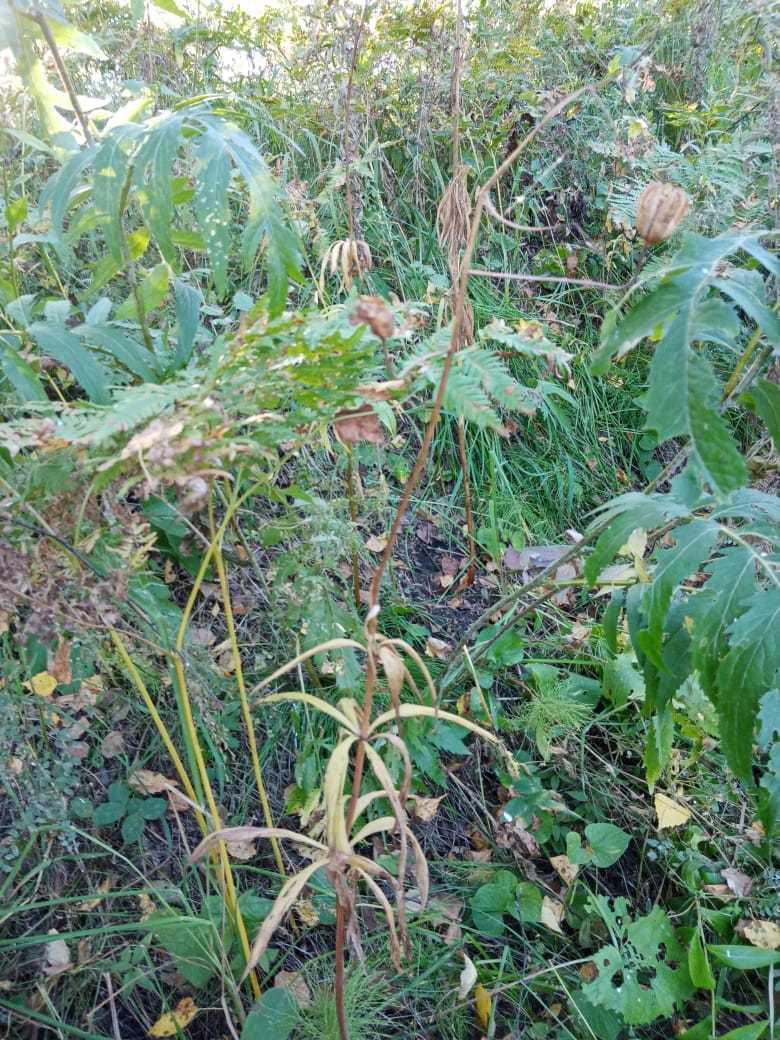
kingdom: Plantae
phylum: Tracheophyta
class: Liliopsida
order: Liliales
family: Liliaceae
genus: Lilium
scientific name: Lilium martagon
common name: Martagon lily
